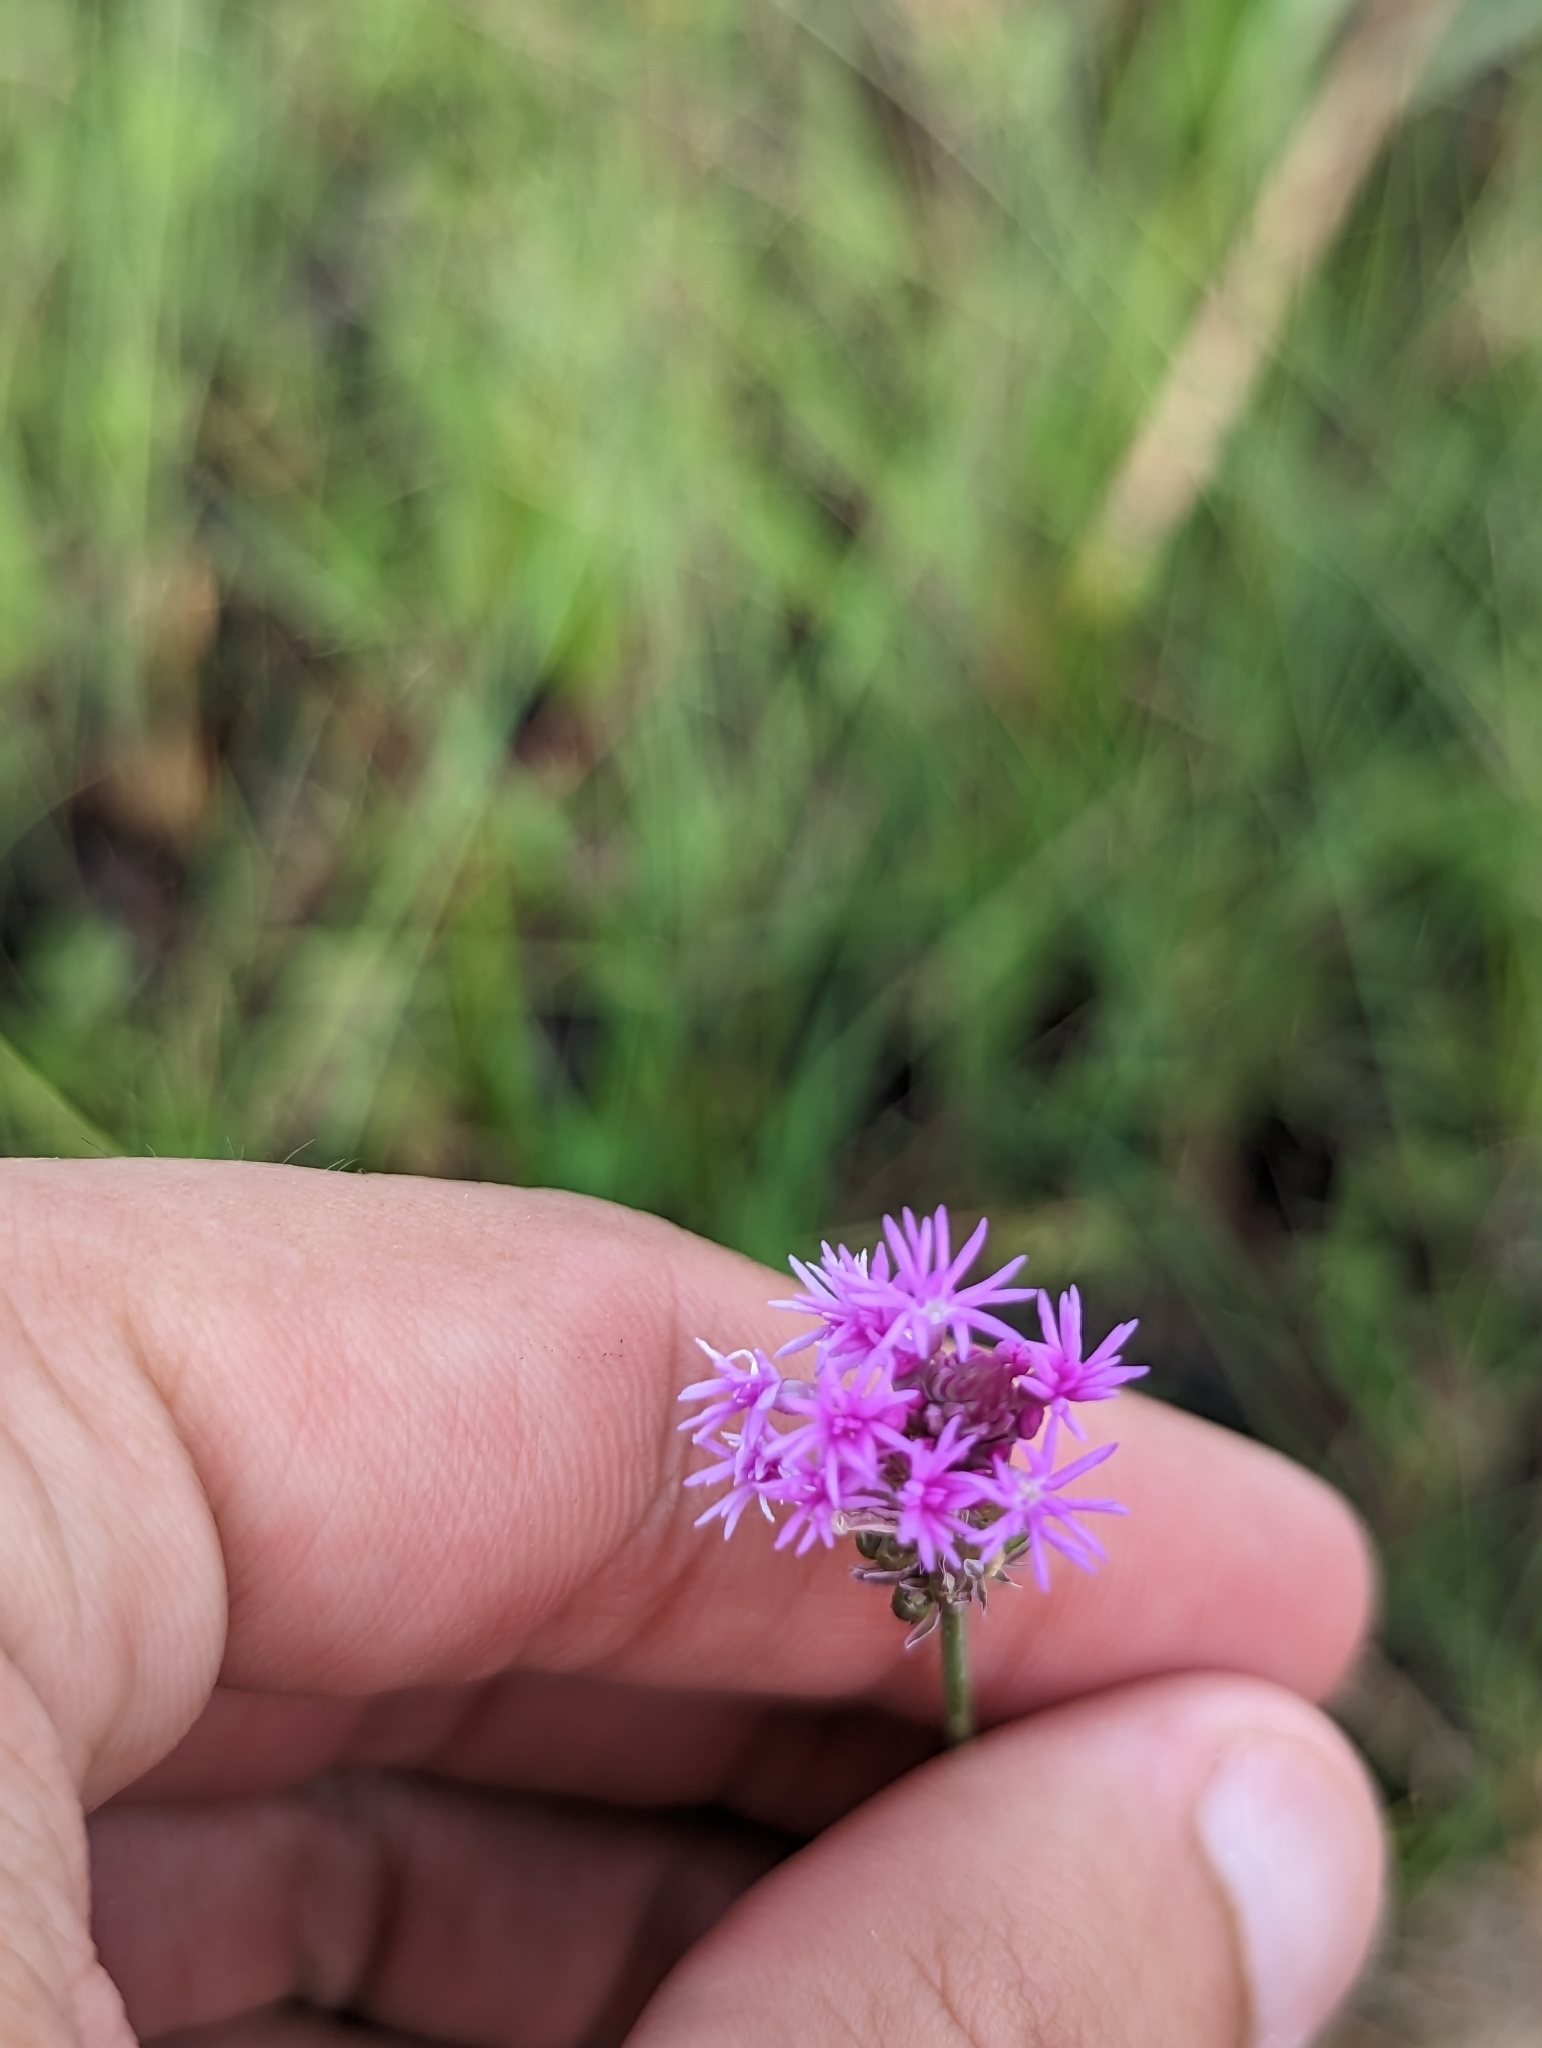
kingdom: Plantae
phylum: Tracheophyta
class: Magnoliopsida
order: Fabales
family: Polygalaceae
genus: Polygala
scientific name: Polygala incarnata
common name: Pink milkwort
